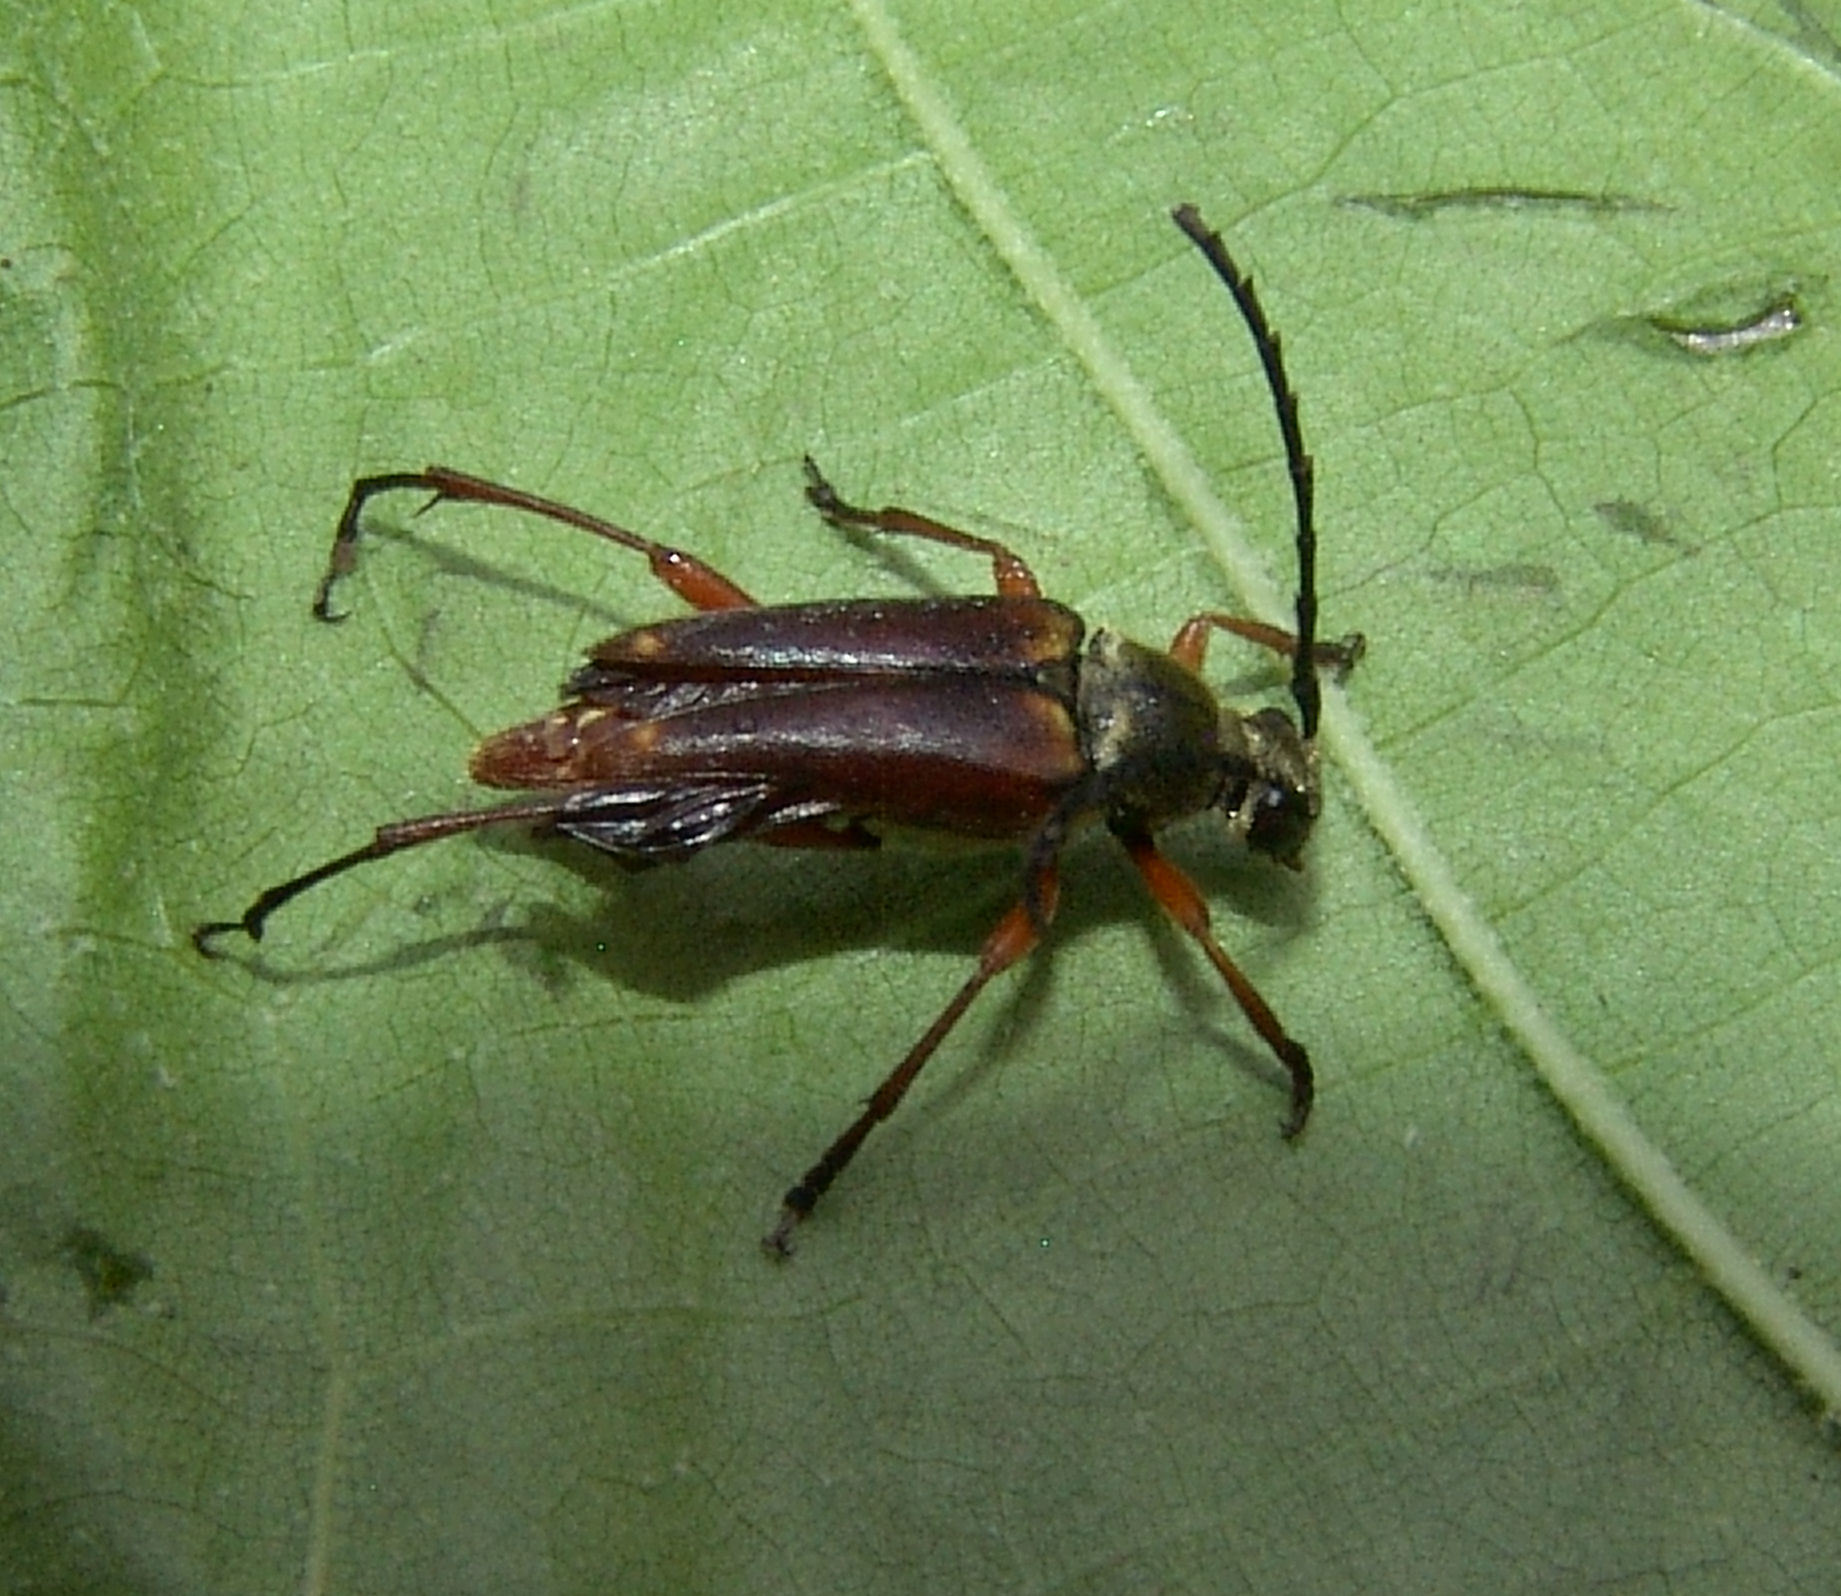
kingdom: Animalia
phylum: Arthropoda
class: Insecta
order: Coleoptera
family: Cerambycidae
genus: Typocerus
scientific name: Typocerus acuticauda
